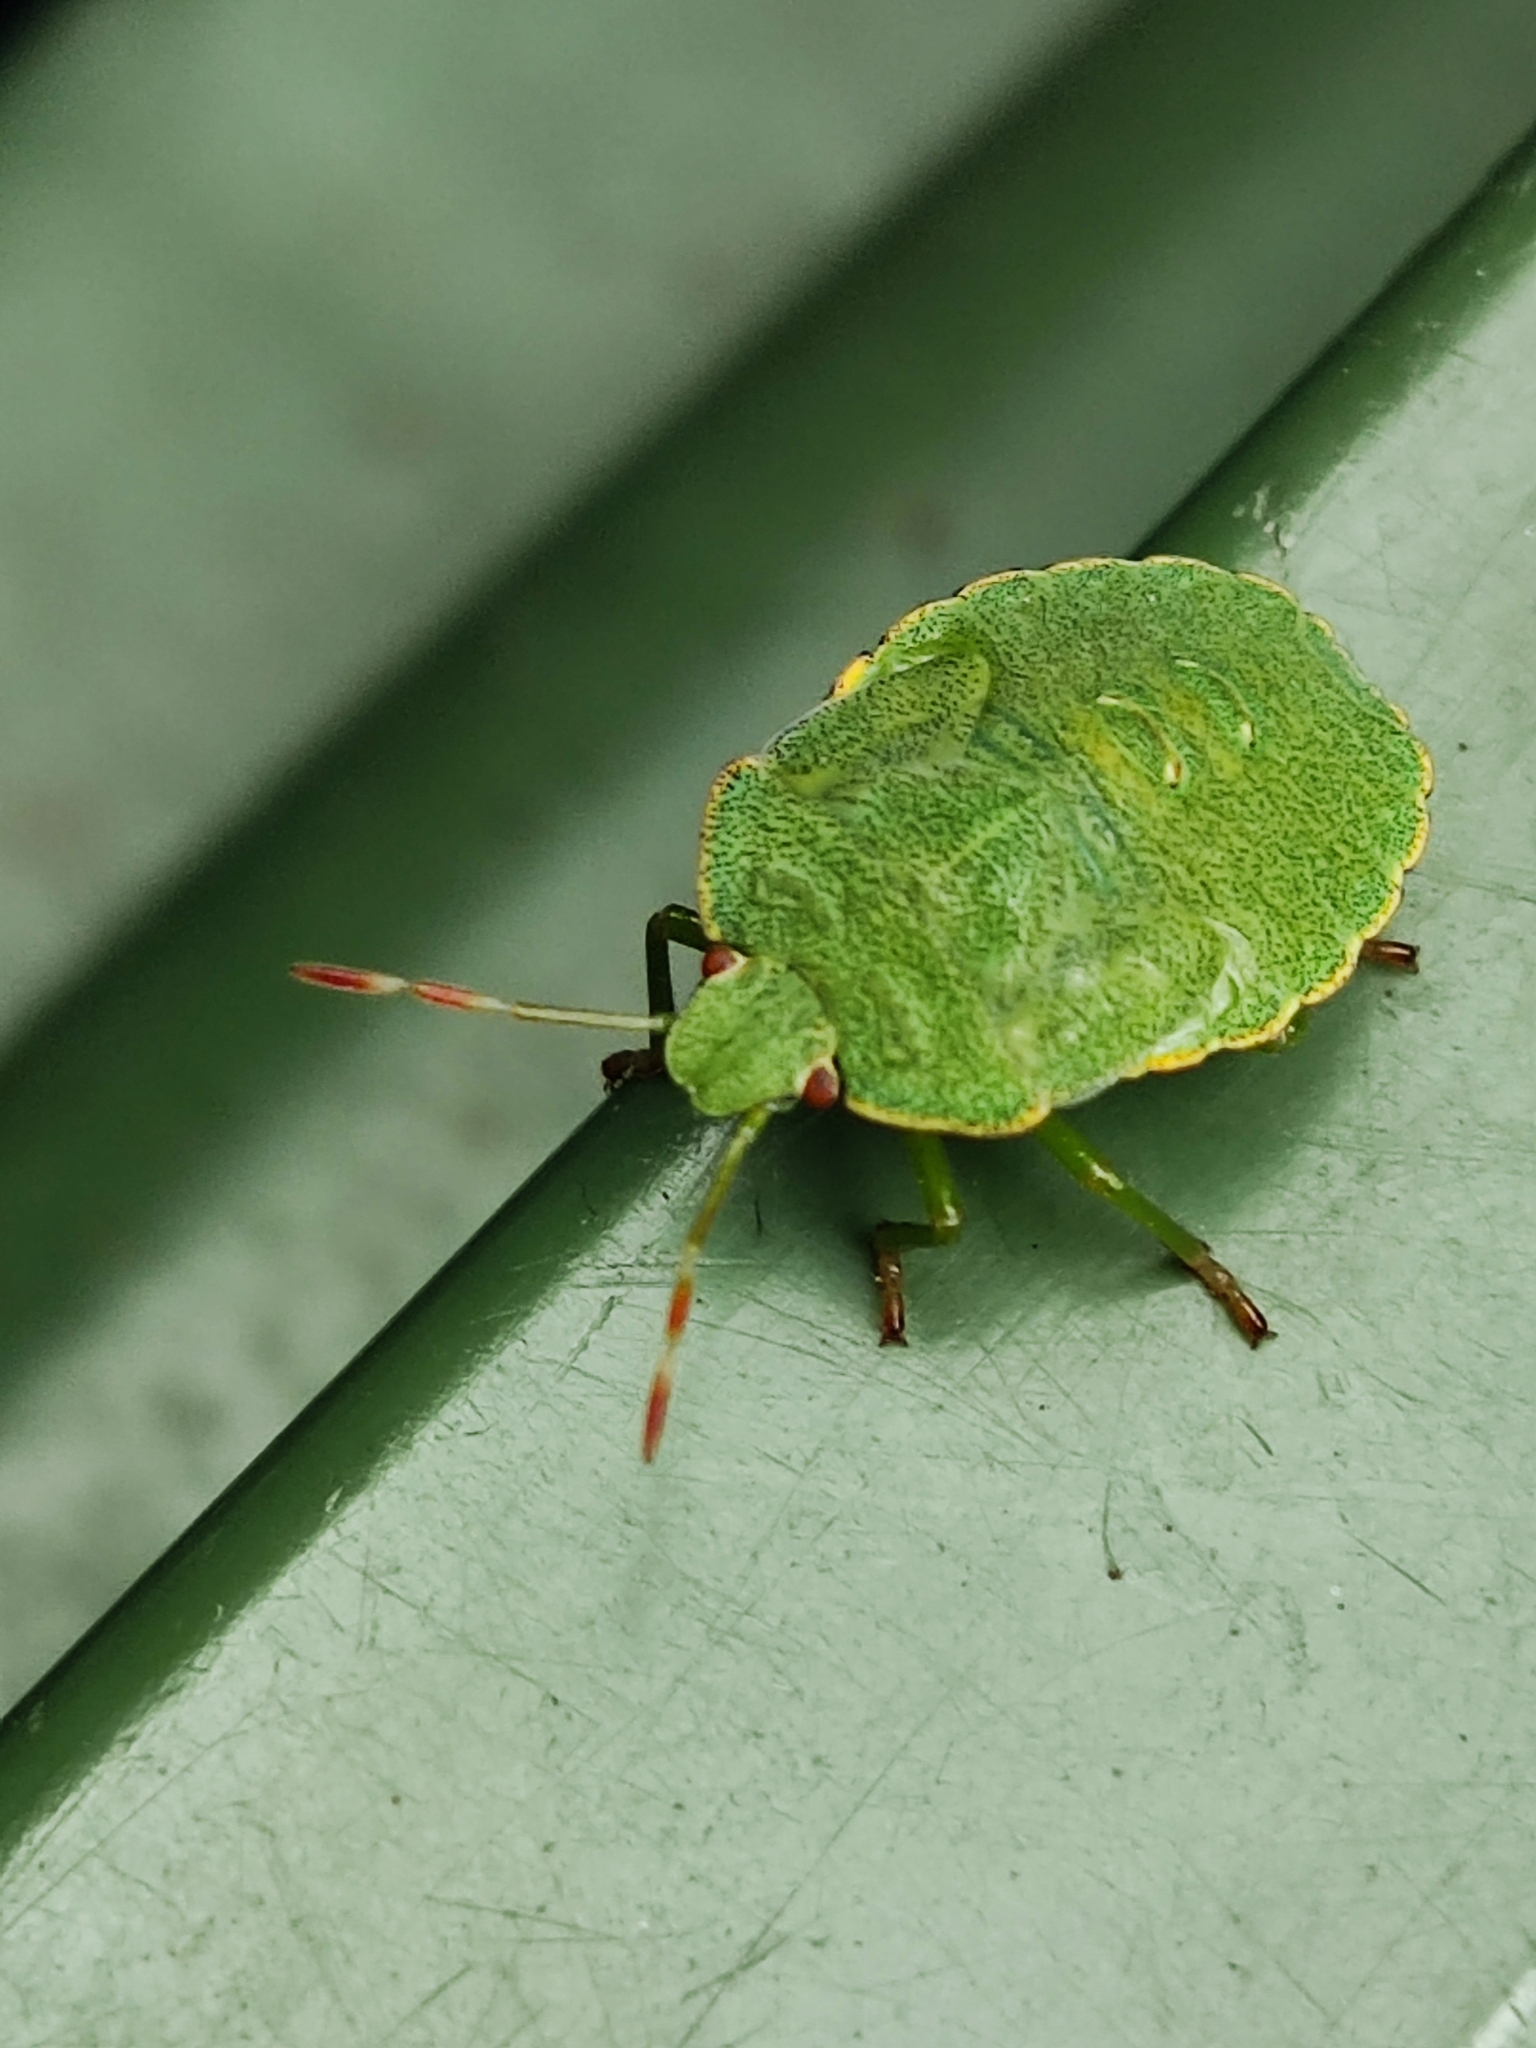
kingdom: Animalia
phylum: Arthropoda
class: Insecta
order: Hemiptera
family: Pentatomidae
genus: Palomena
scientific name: Palomena prasina
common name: Green shieldbug
